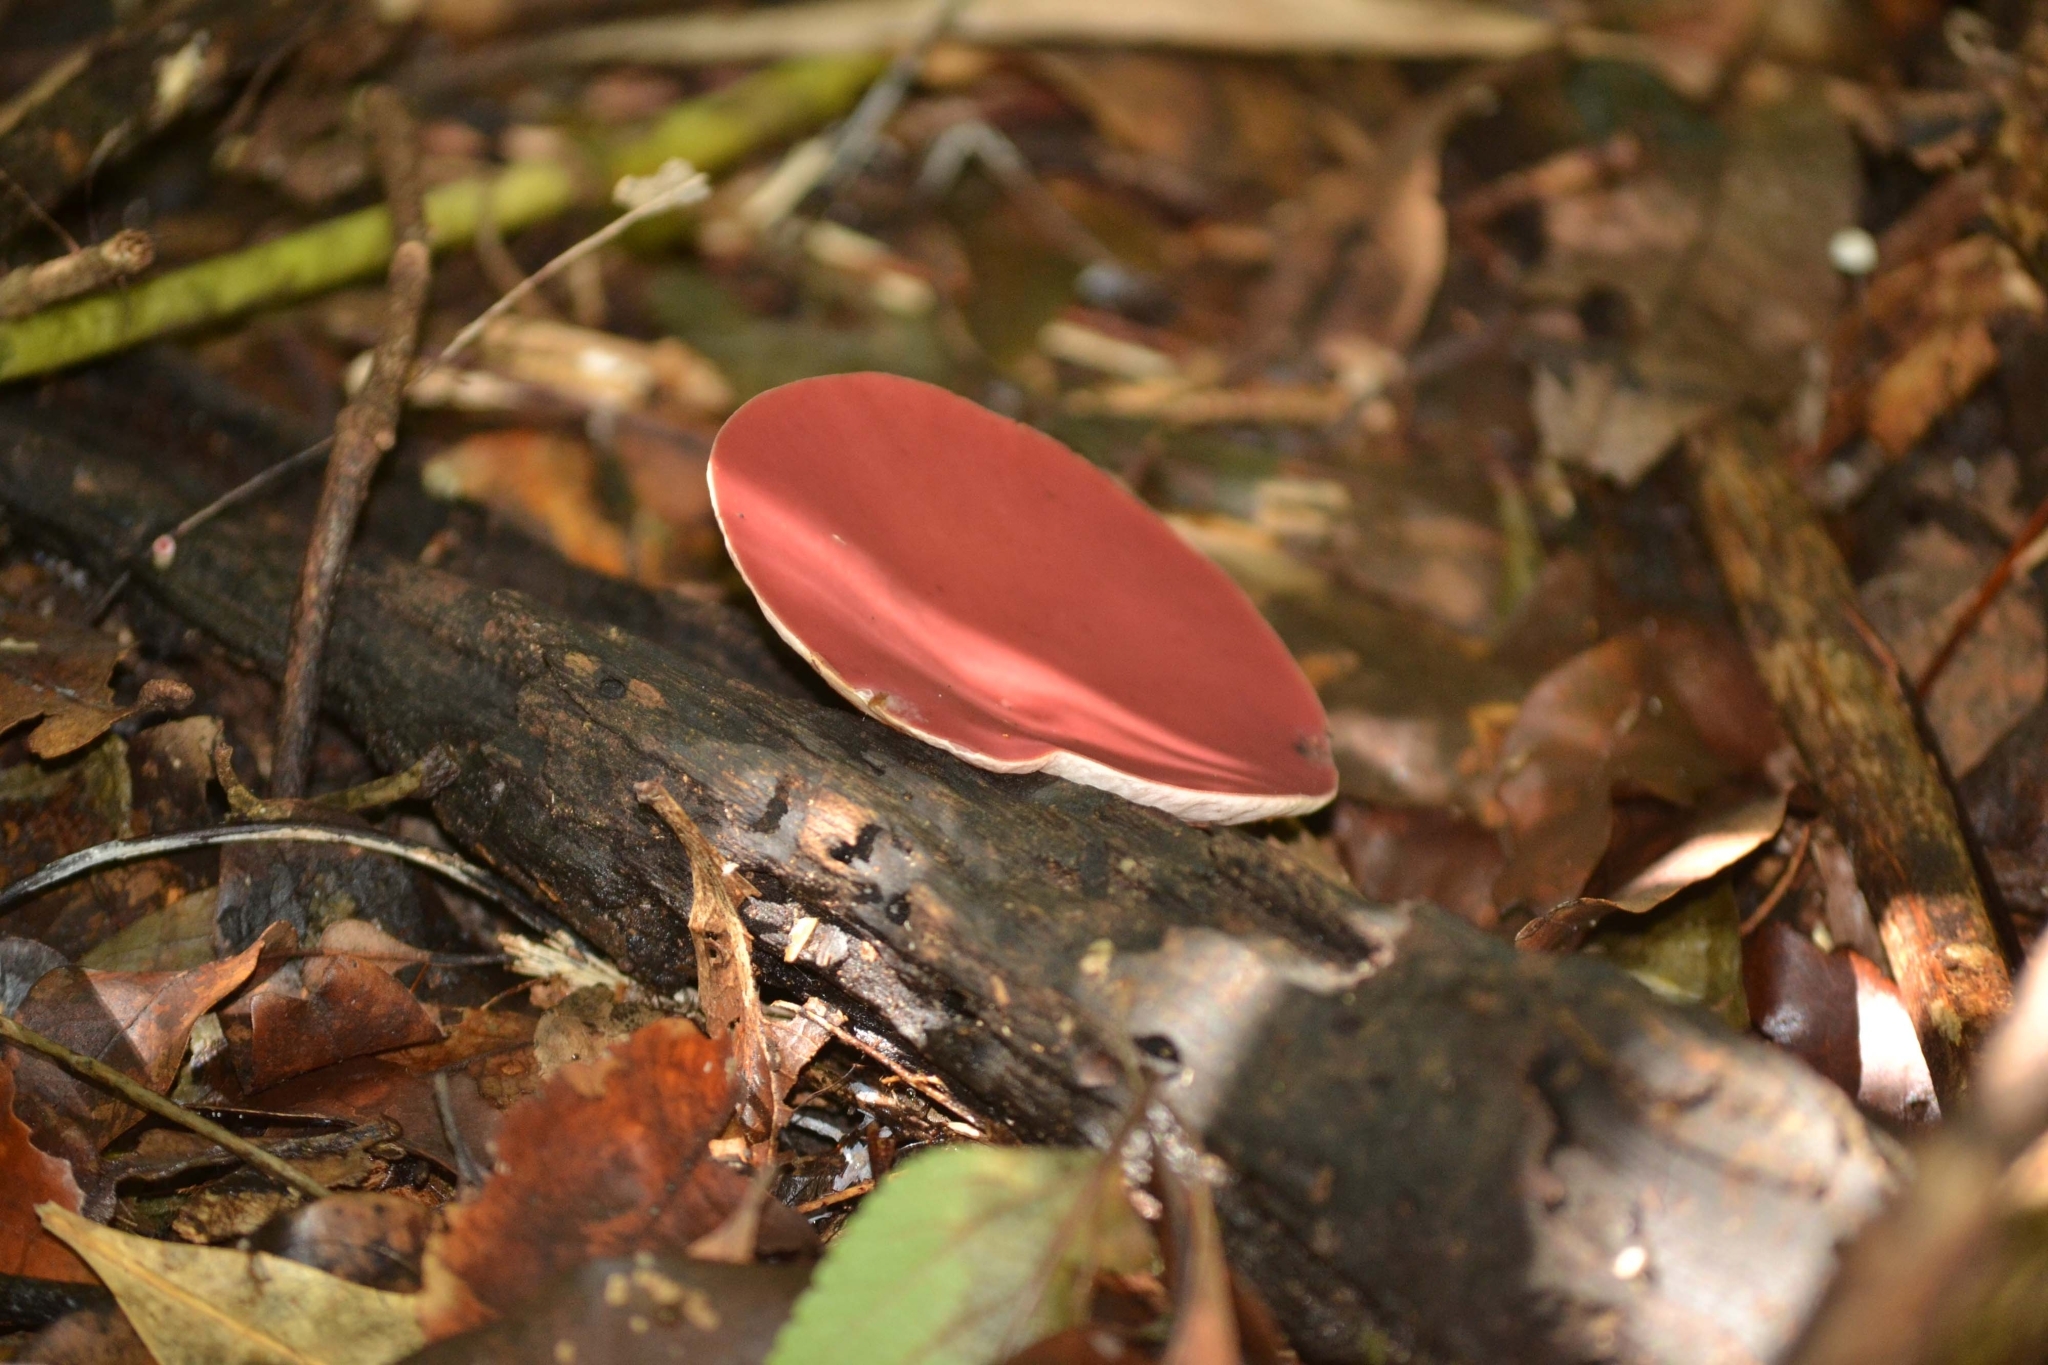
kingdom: Fungi
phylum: Ascomycota
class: Pezizomycetes
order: Pezizales
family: Sarcoscyphaceae
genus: Phillipsia
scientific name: Phillipsia subpurpurea
